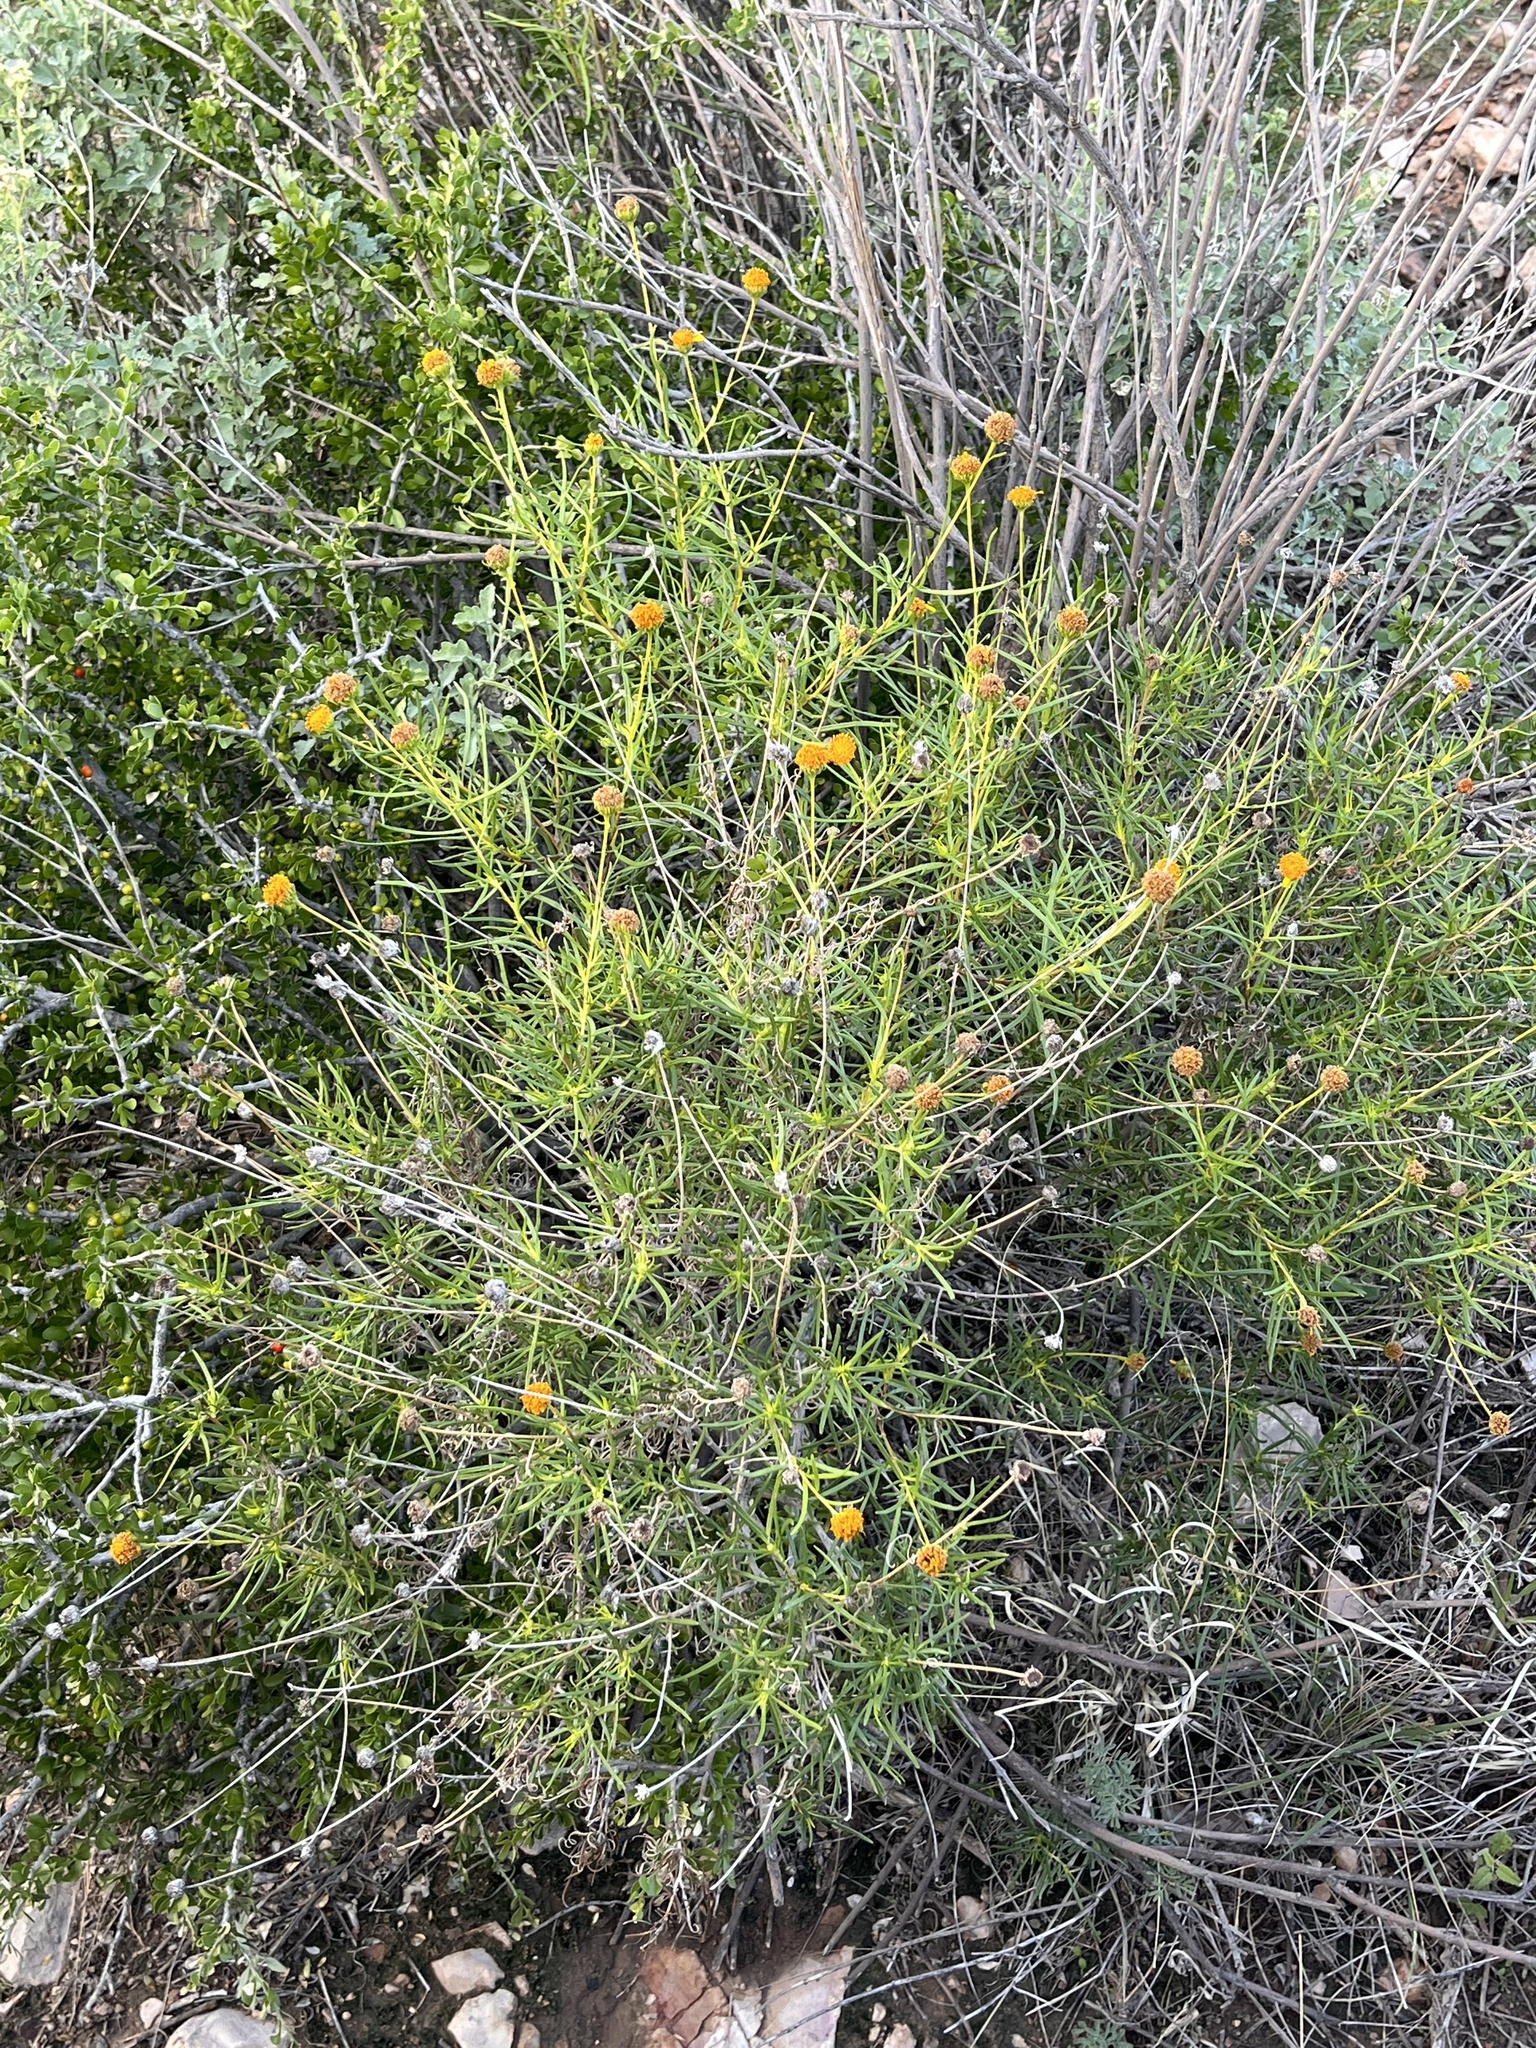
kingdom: Plantae
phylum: Tracheophyta
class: Magnoliopsida
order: Asterales
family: Asteraceae
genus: Sidneya
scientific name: Sidneya tenuifolia
